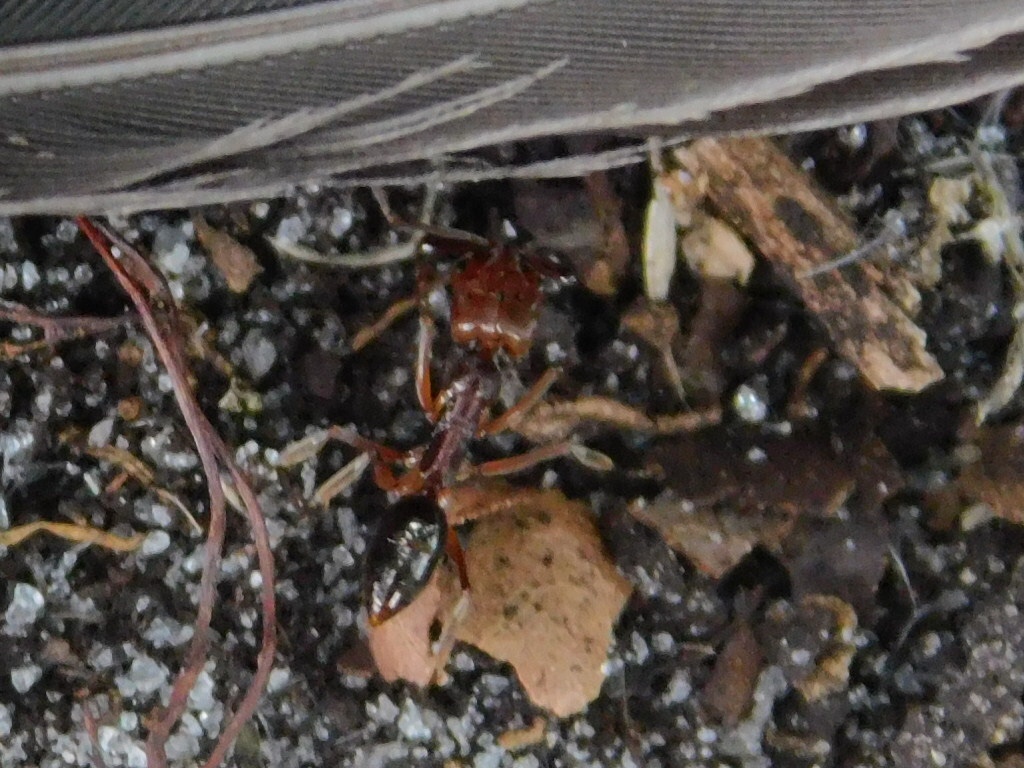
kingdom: Animalia
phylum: Arthropoda
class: Insecta
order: Hymenoptera
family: Formicidae
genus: Odontomachus
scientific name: Odontomachus ruginodis
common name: Trapjaw ant
